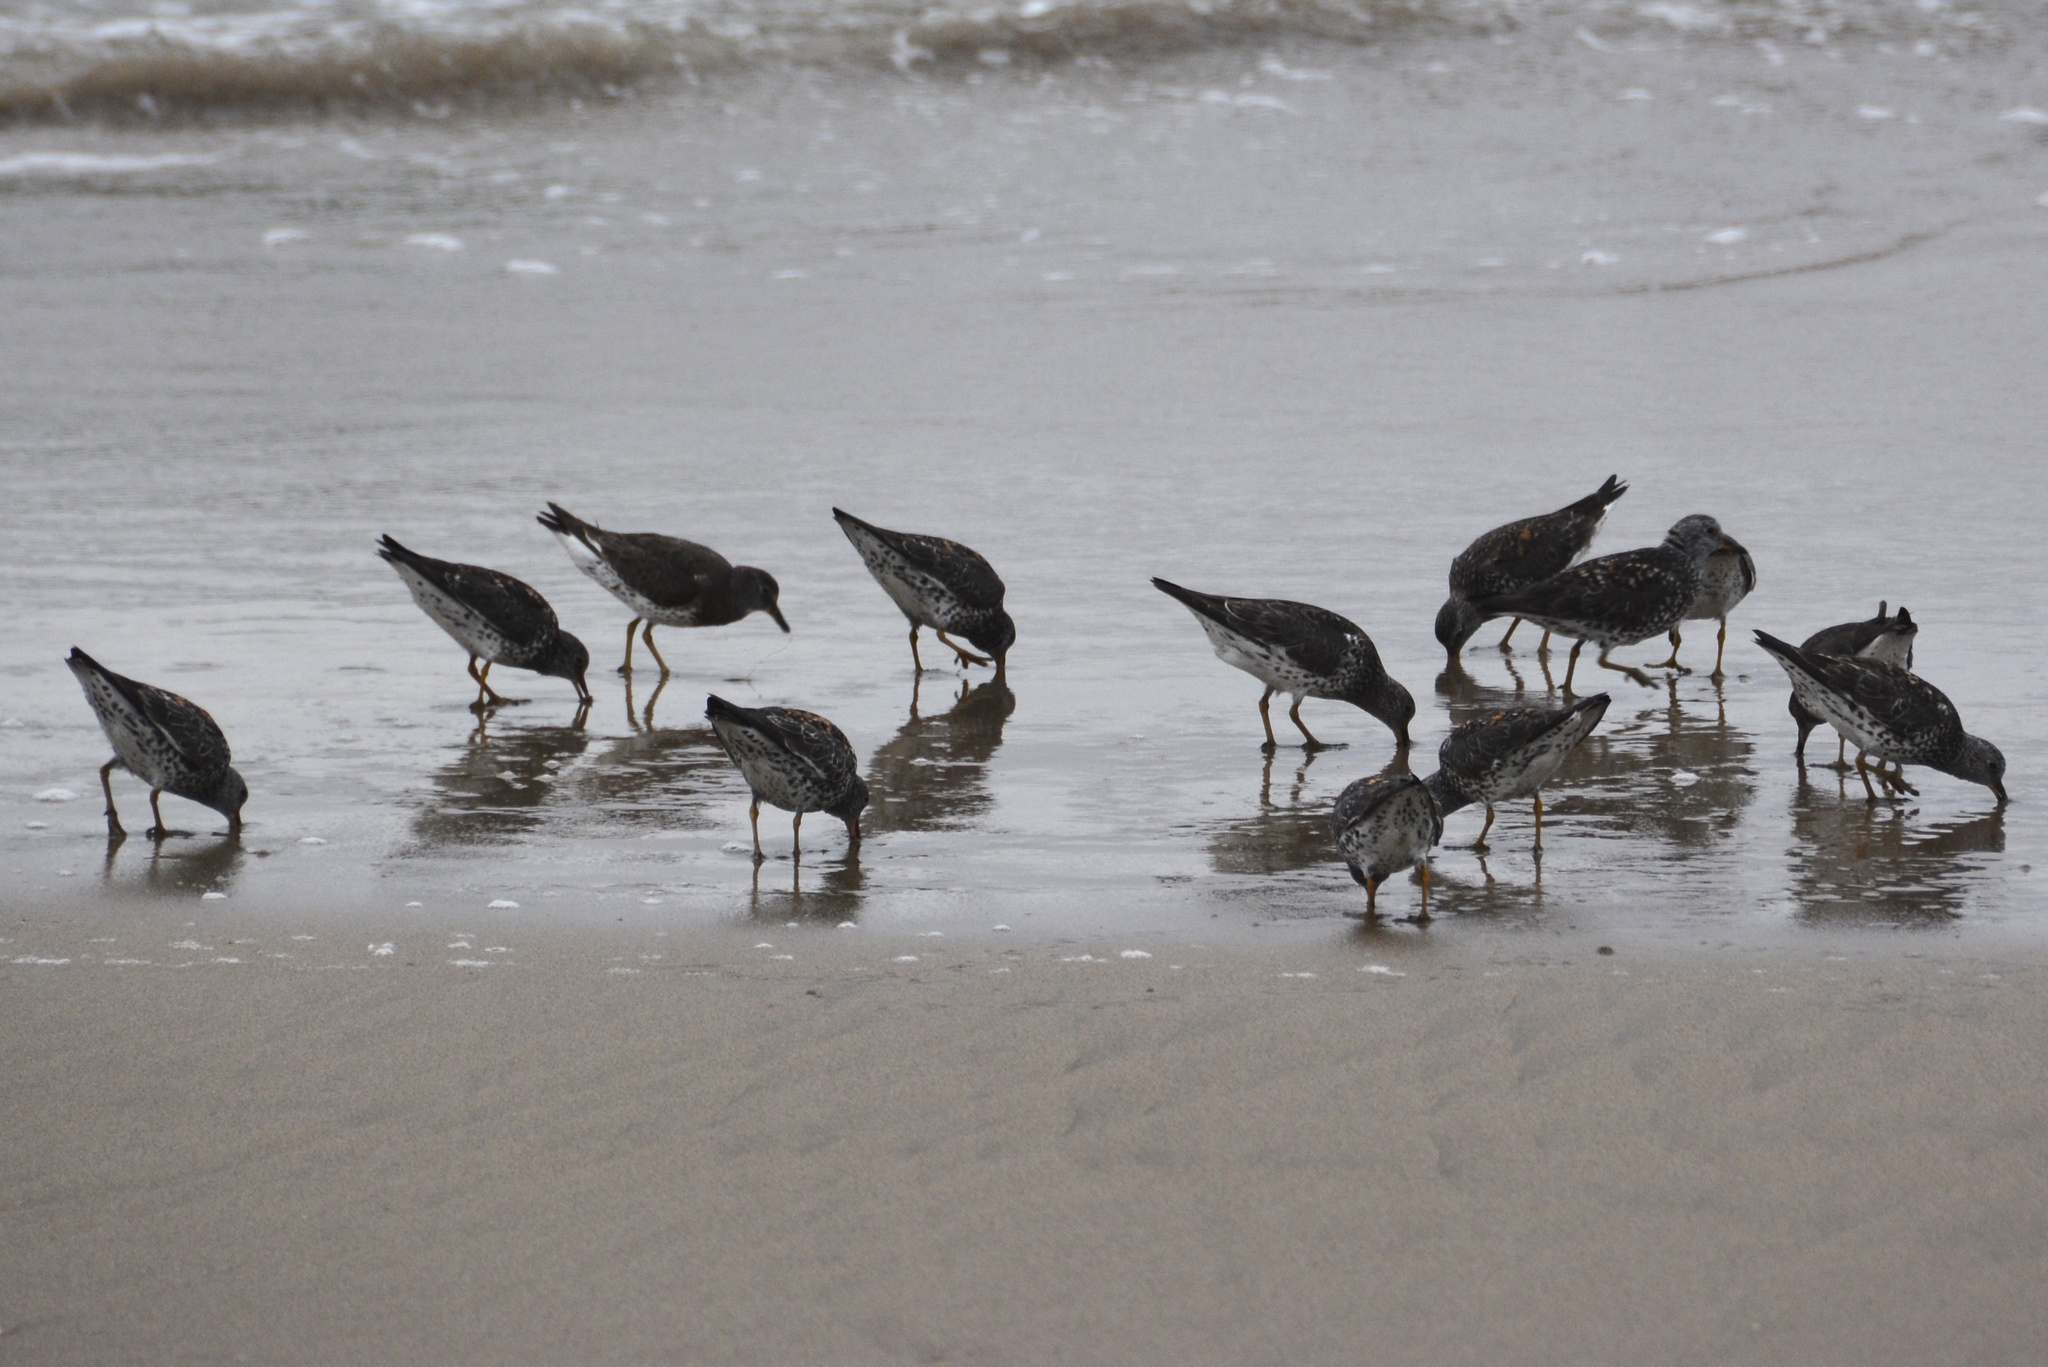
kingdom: Animalia
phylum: Chordata
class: Aves
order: Charadriiformes
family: Scolopacidae
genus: Calidris
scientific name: Calidris virgata
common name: Surfbird
